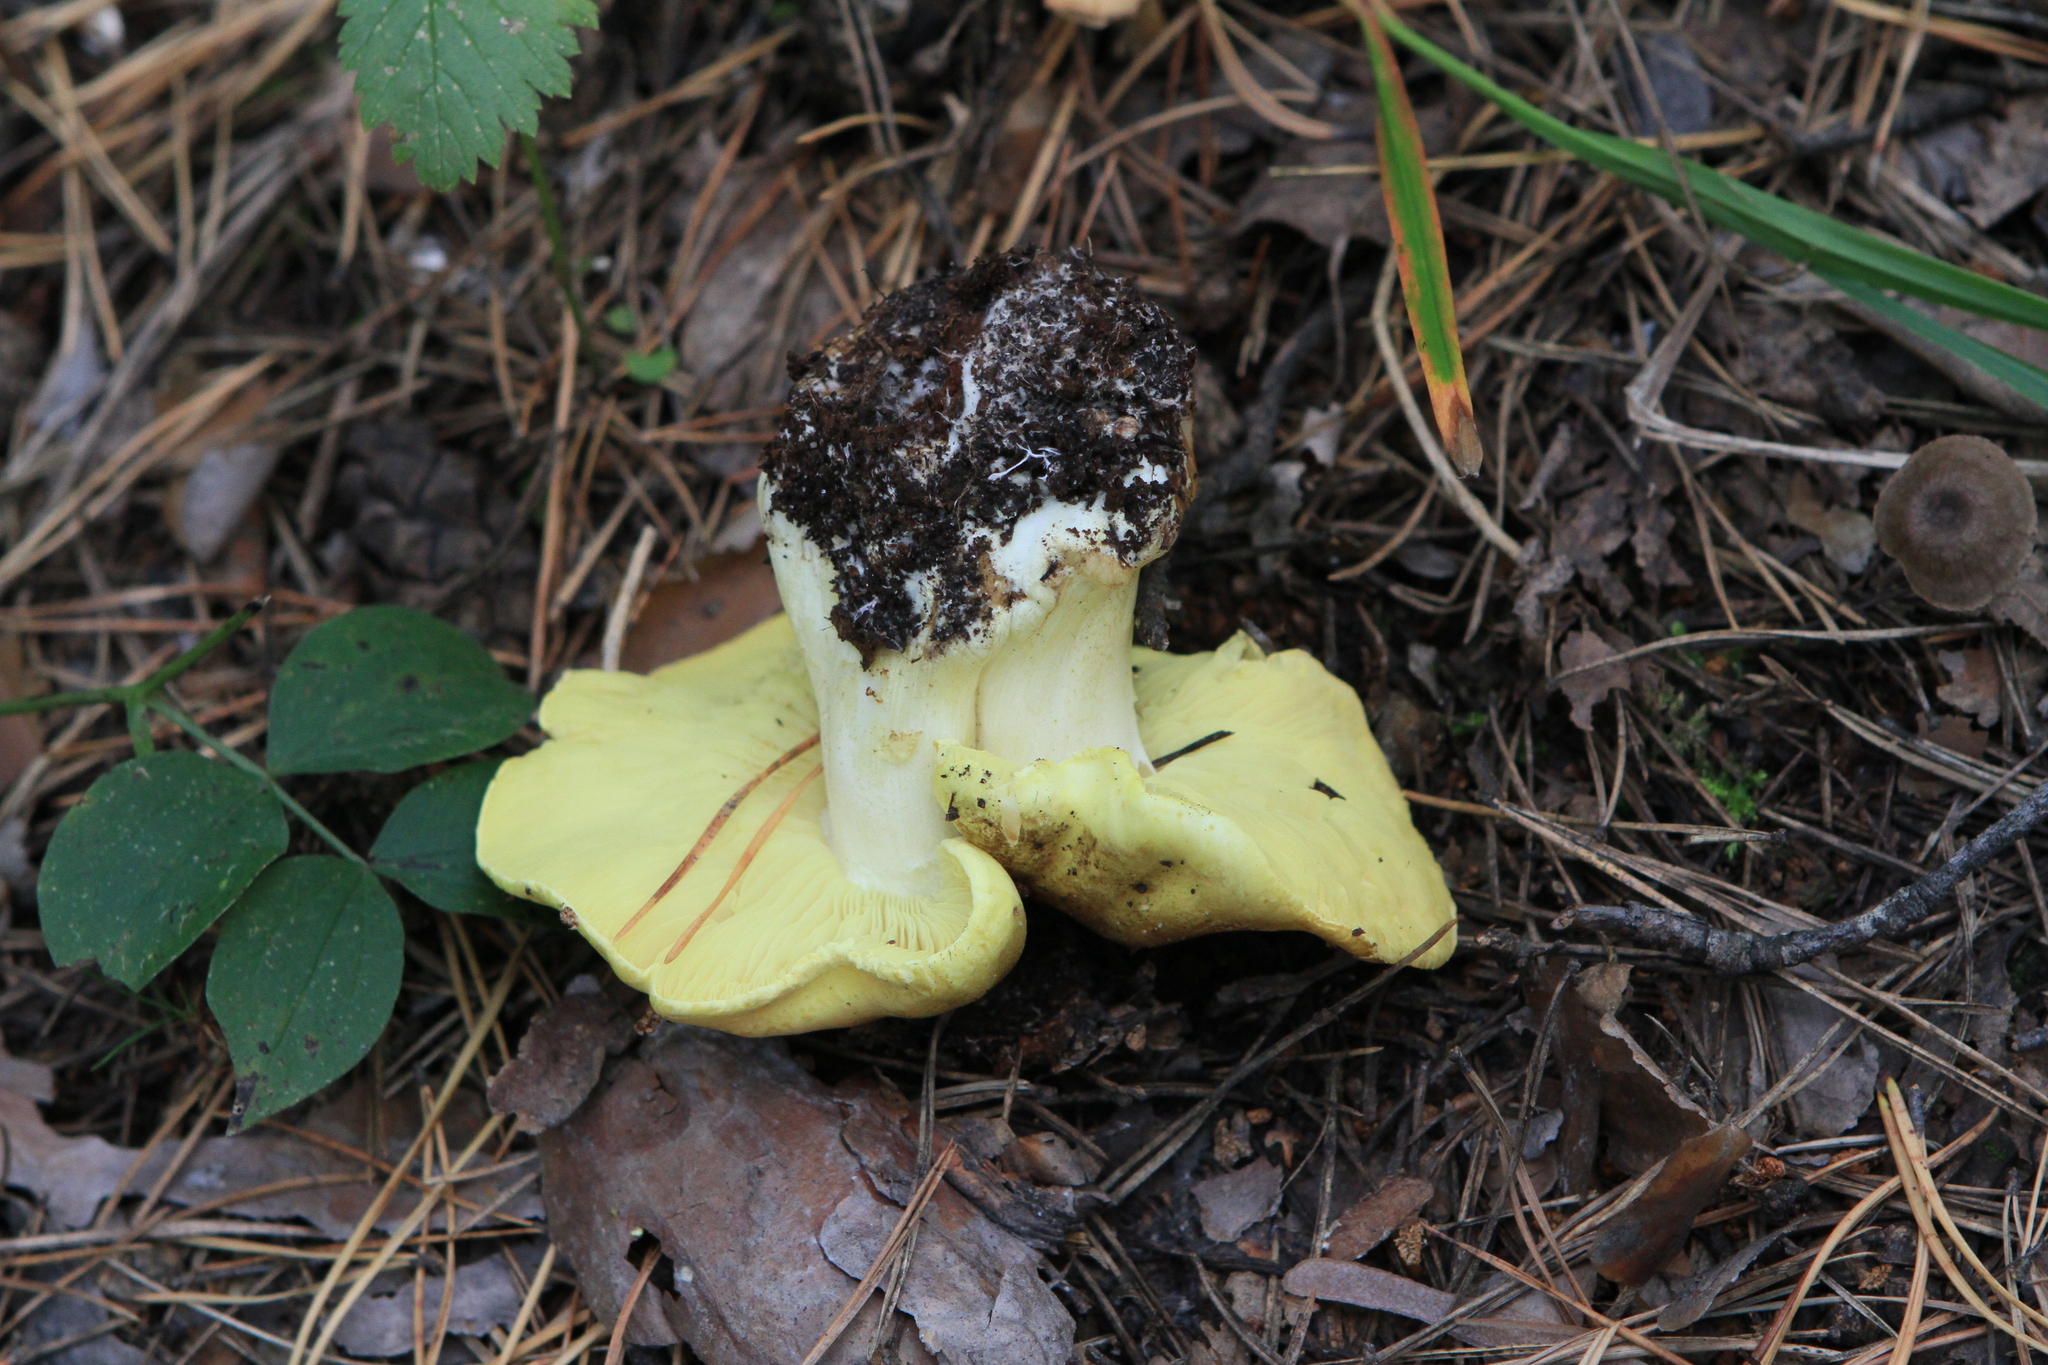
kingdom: Fungi
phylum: Basidiomycota
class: Agaricomycetes
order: Agaricales
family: Tricholomataceae
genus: Tricholoma
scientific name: Tricholoma equestre
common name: Yellow knight
